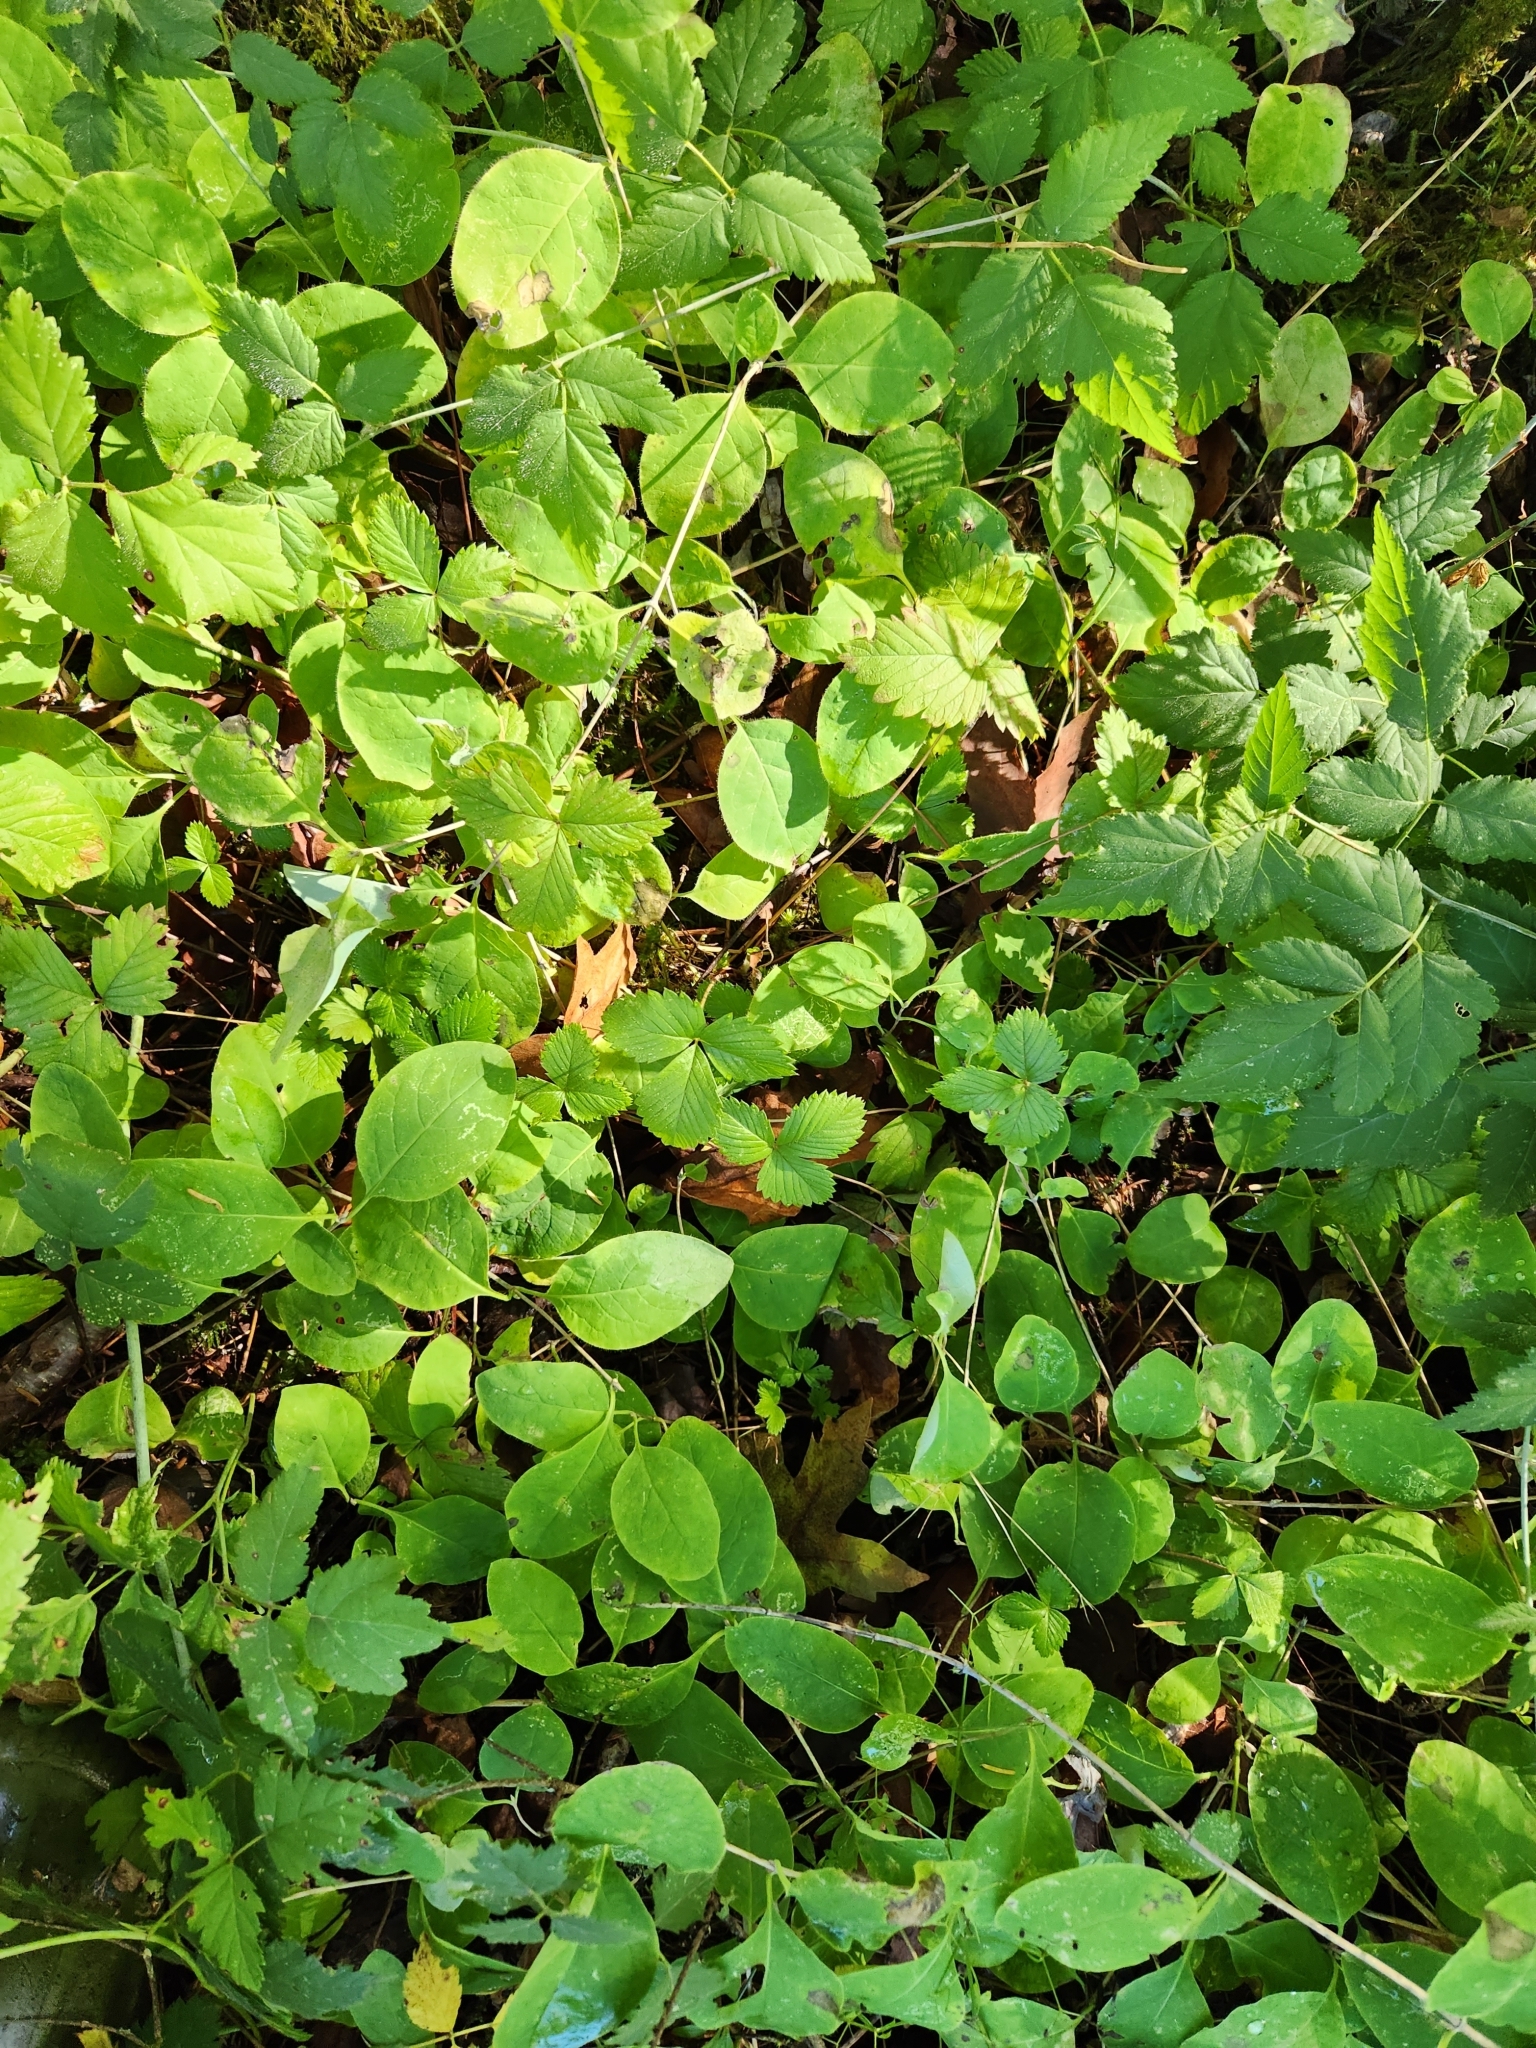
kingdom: Plantae
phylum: Tracheophyta
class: Magnoliopsida
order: Gentianales
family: Apocynaceae
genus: Apocynum
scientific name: Apocynum androsaemifolium
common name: Spreading dogbane
